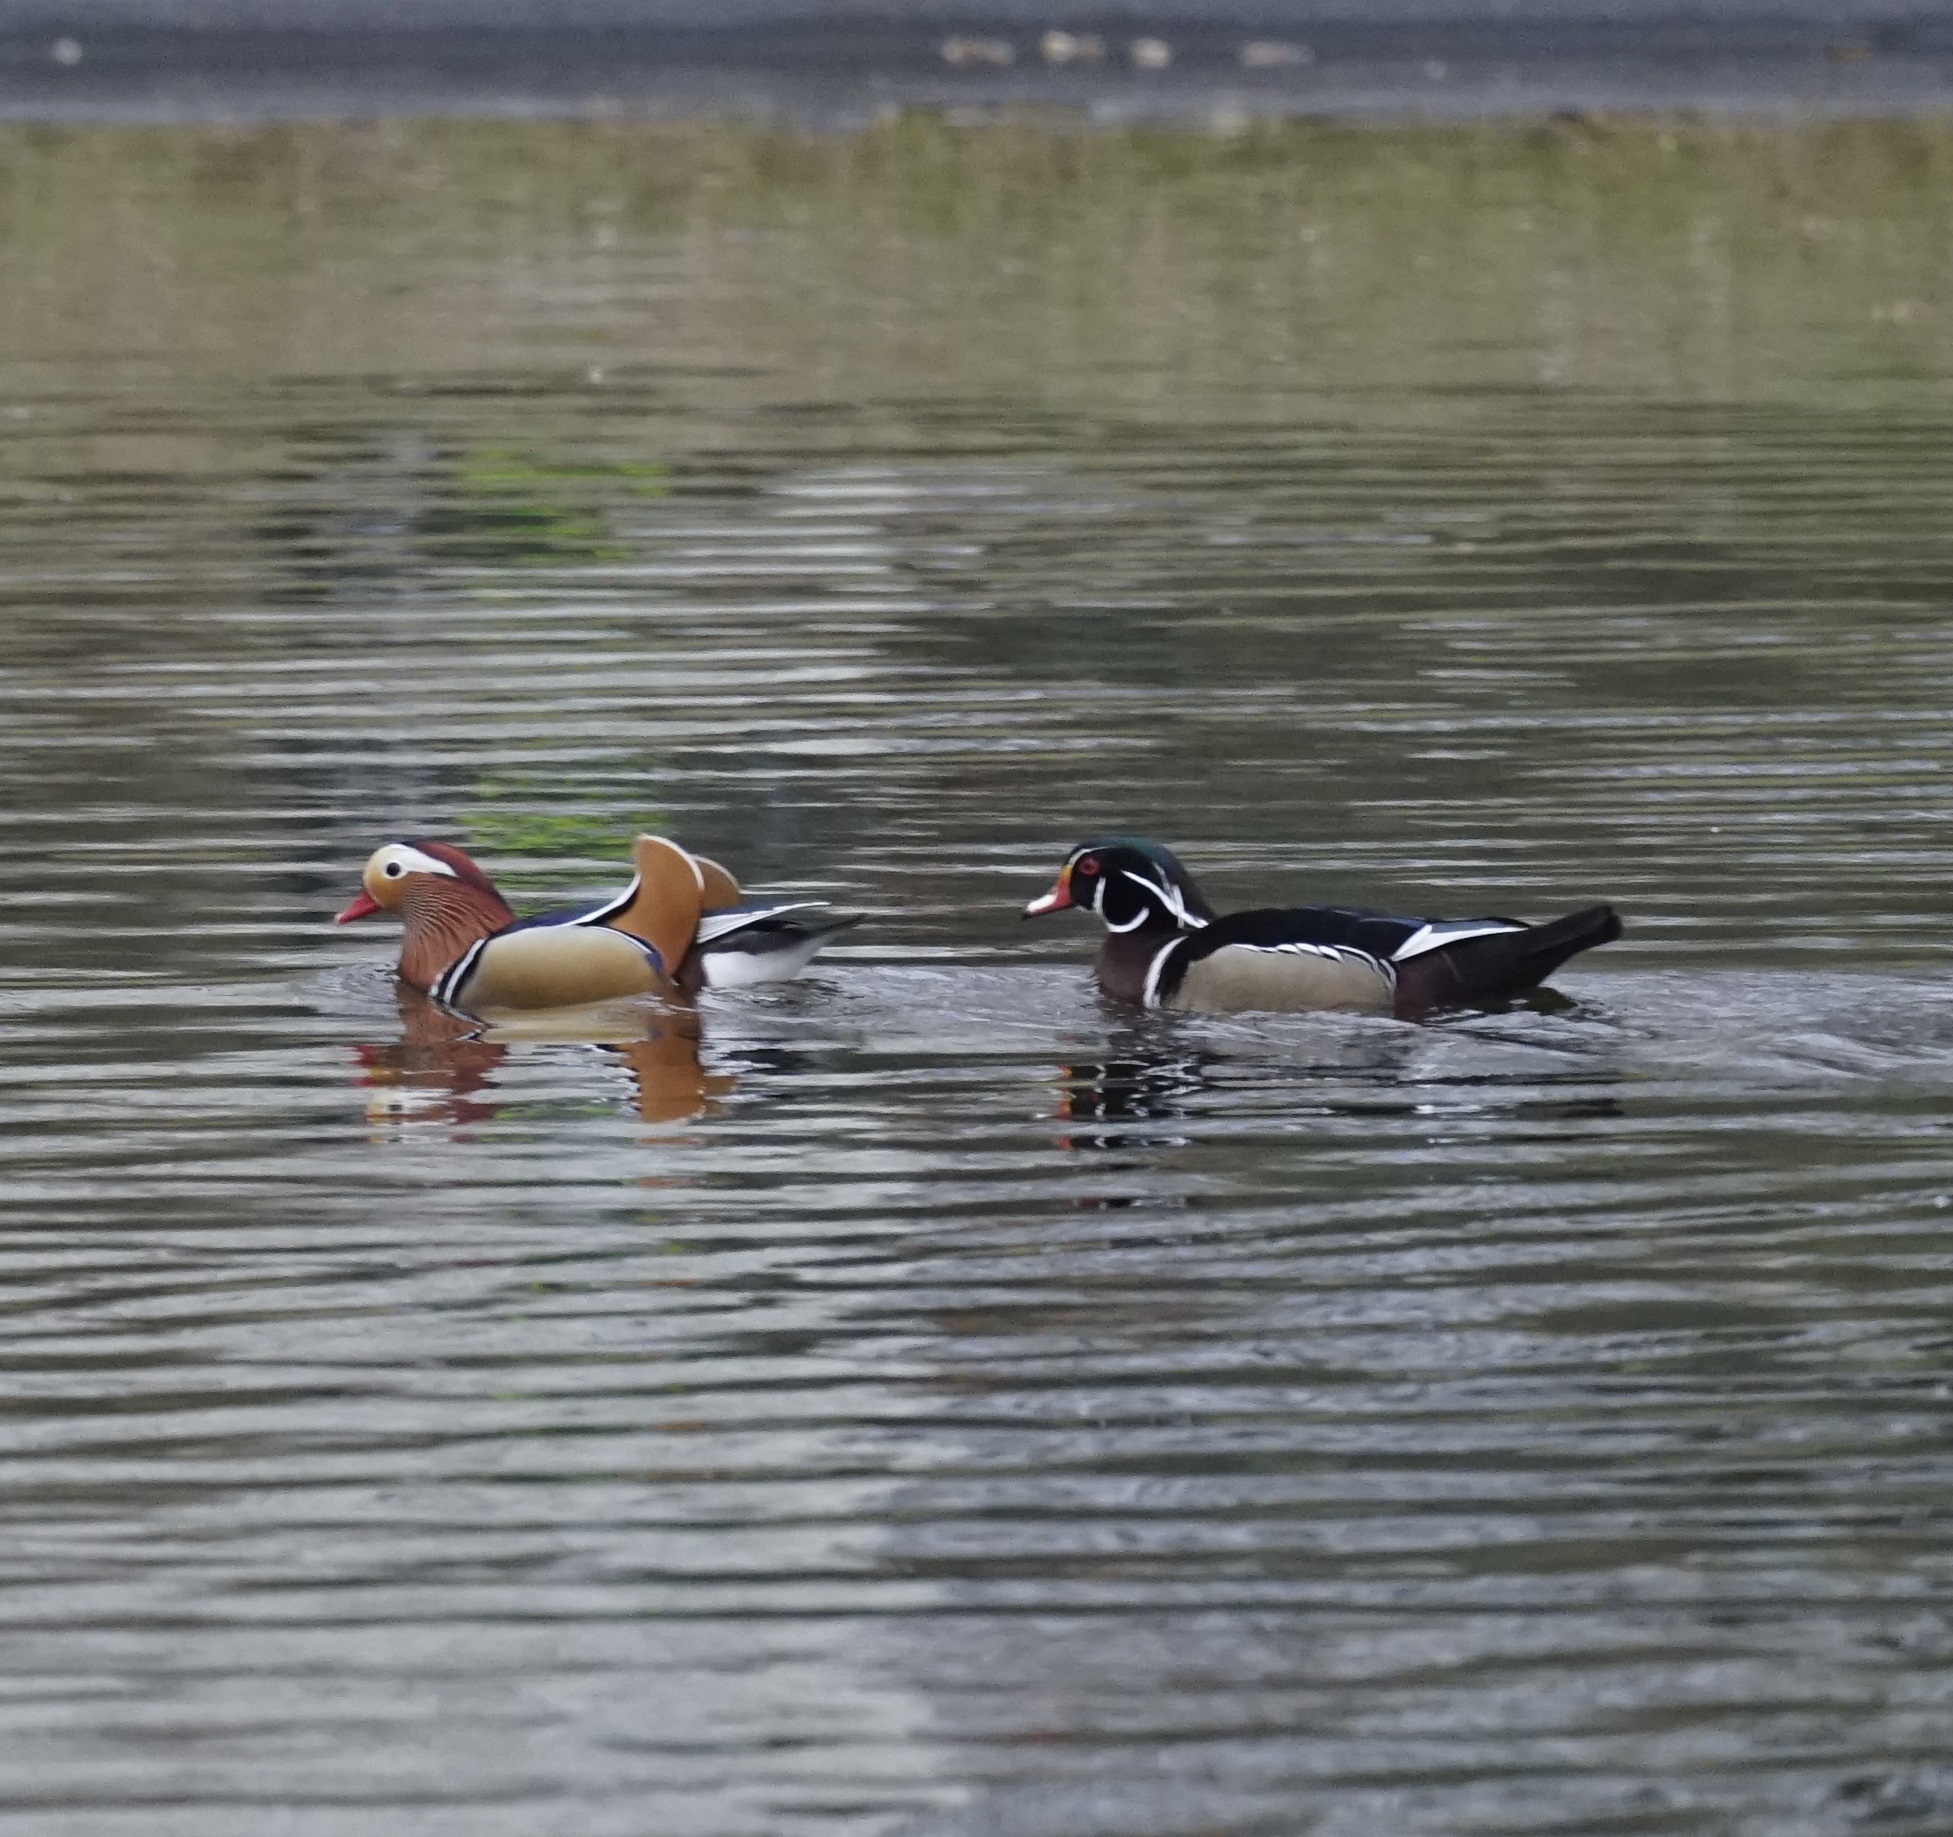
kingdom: Animalia
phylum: Chordata
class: Aves
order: Anseriformes
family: Anatidae
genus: Aix
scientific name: Aix galericulata
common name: Mandarin duck
